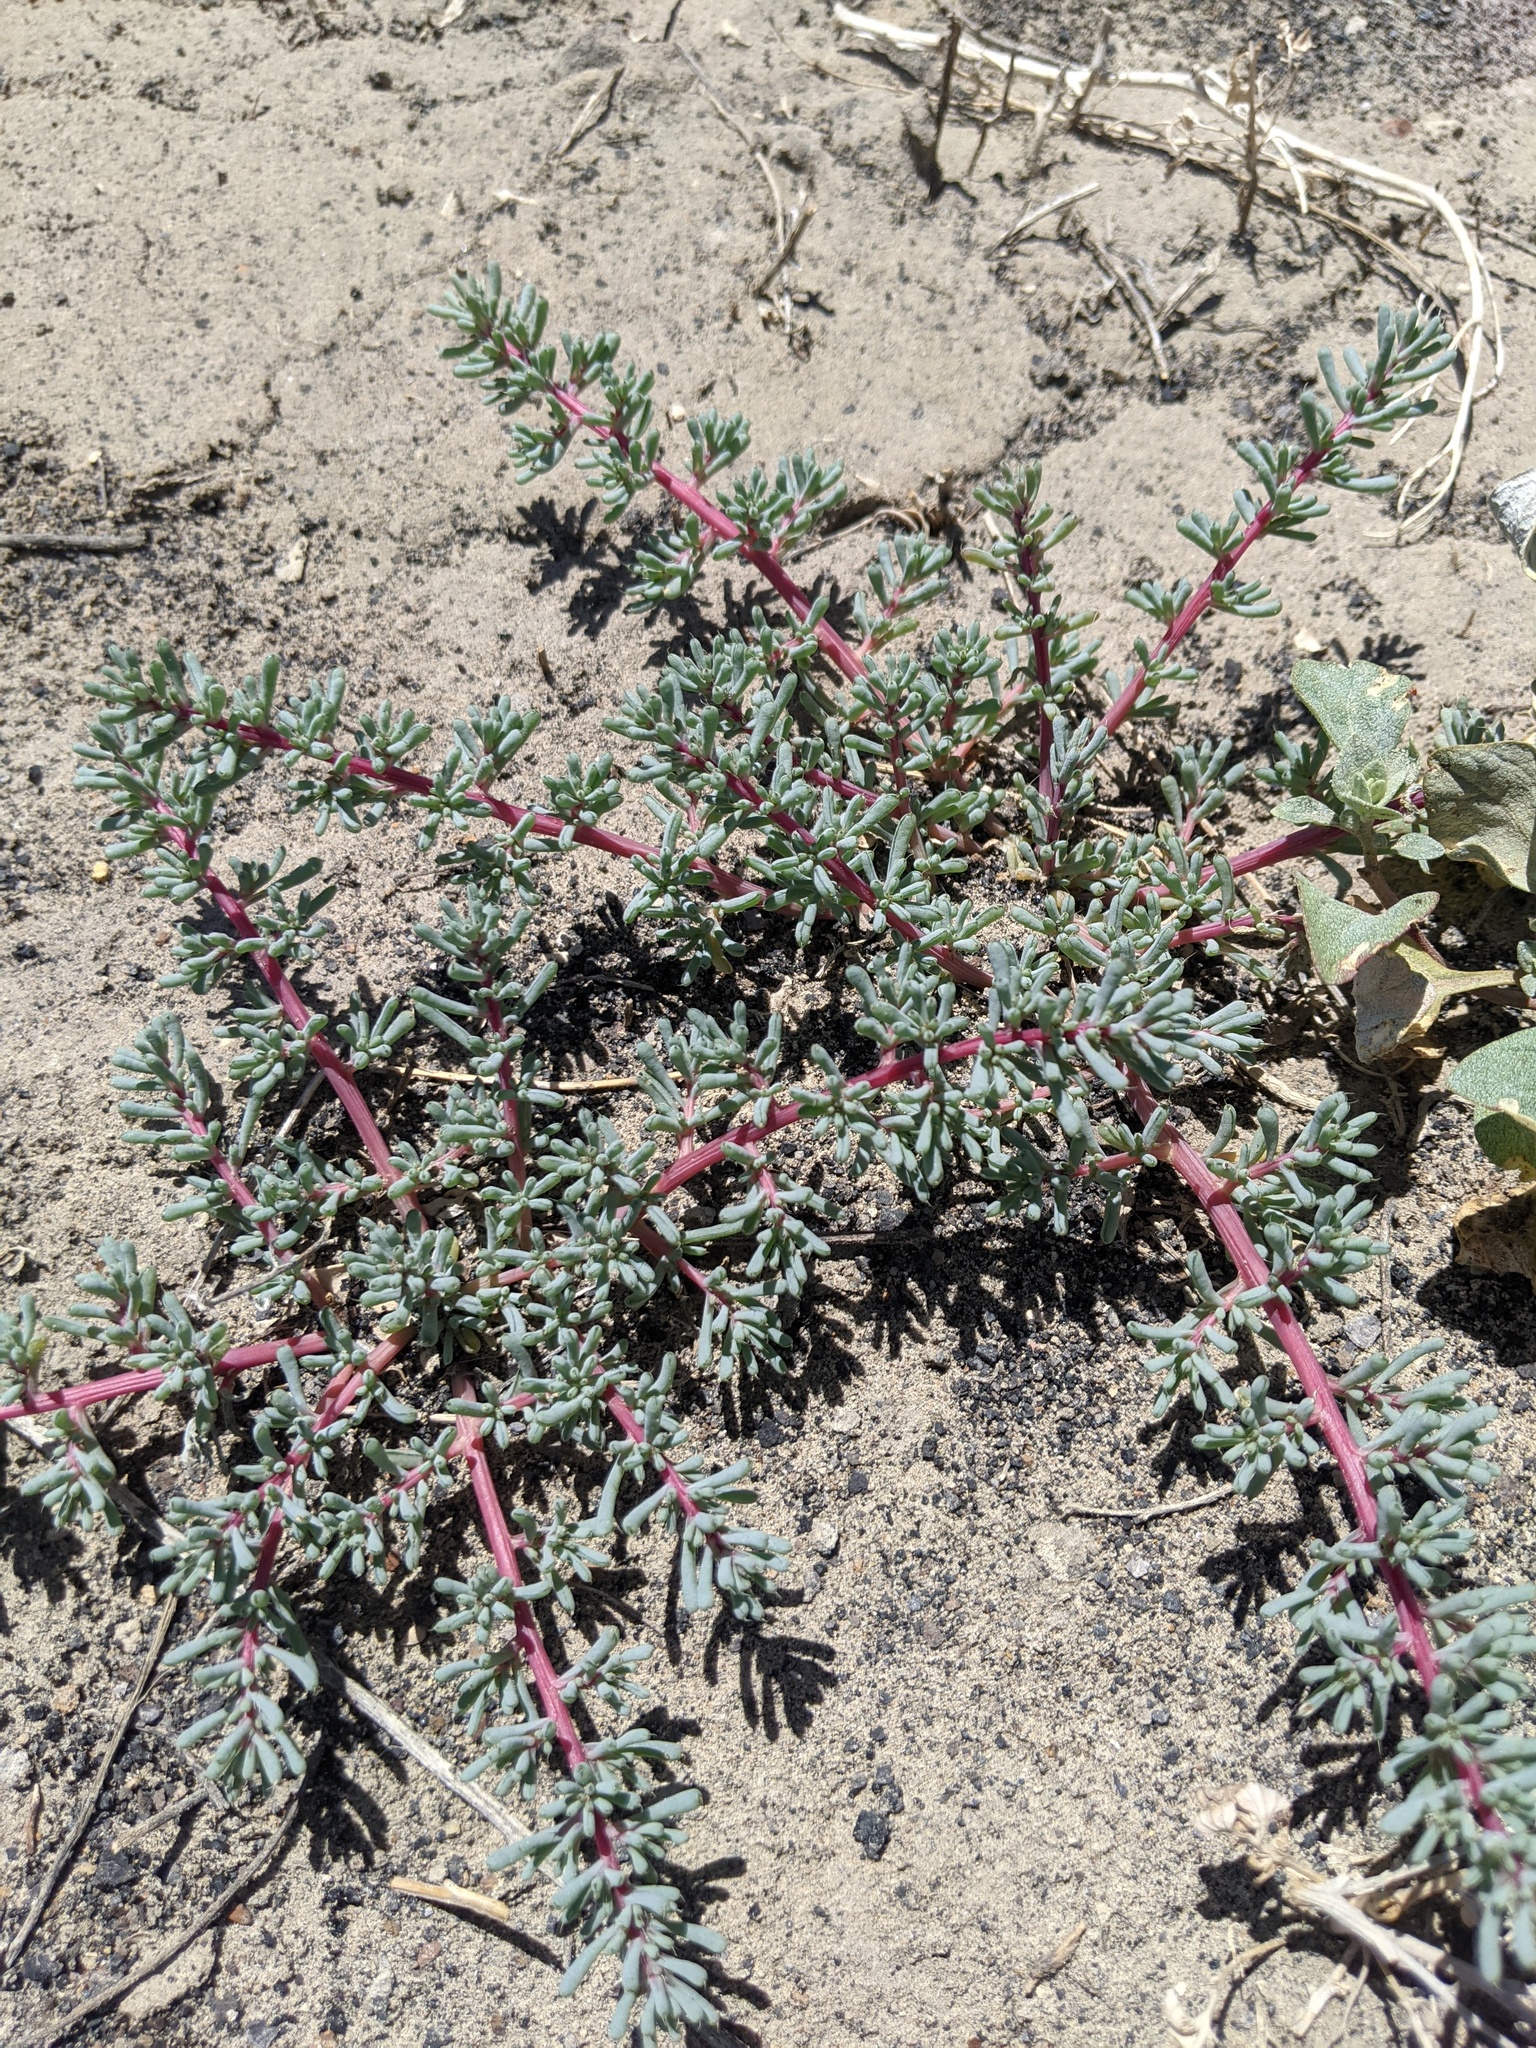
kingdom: Plantae
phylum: Tracheophyta
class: Magnoliopsida
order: Caryophyllales
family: Amaranthaceae
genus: Halogeton
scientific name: Halogeton glomeratus
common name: Saltlover
